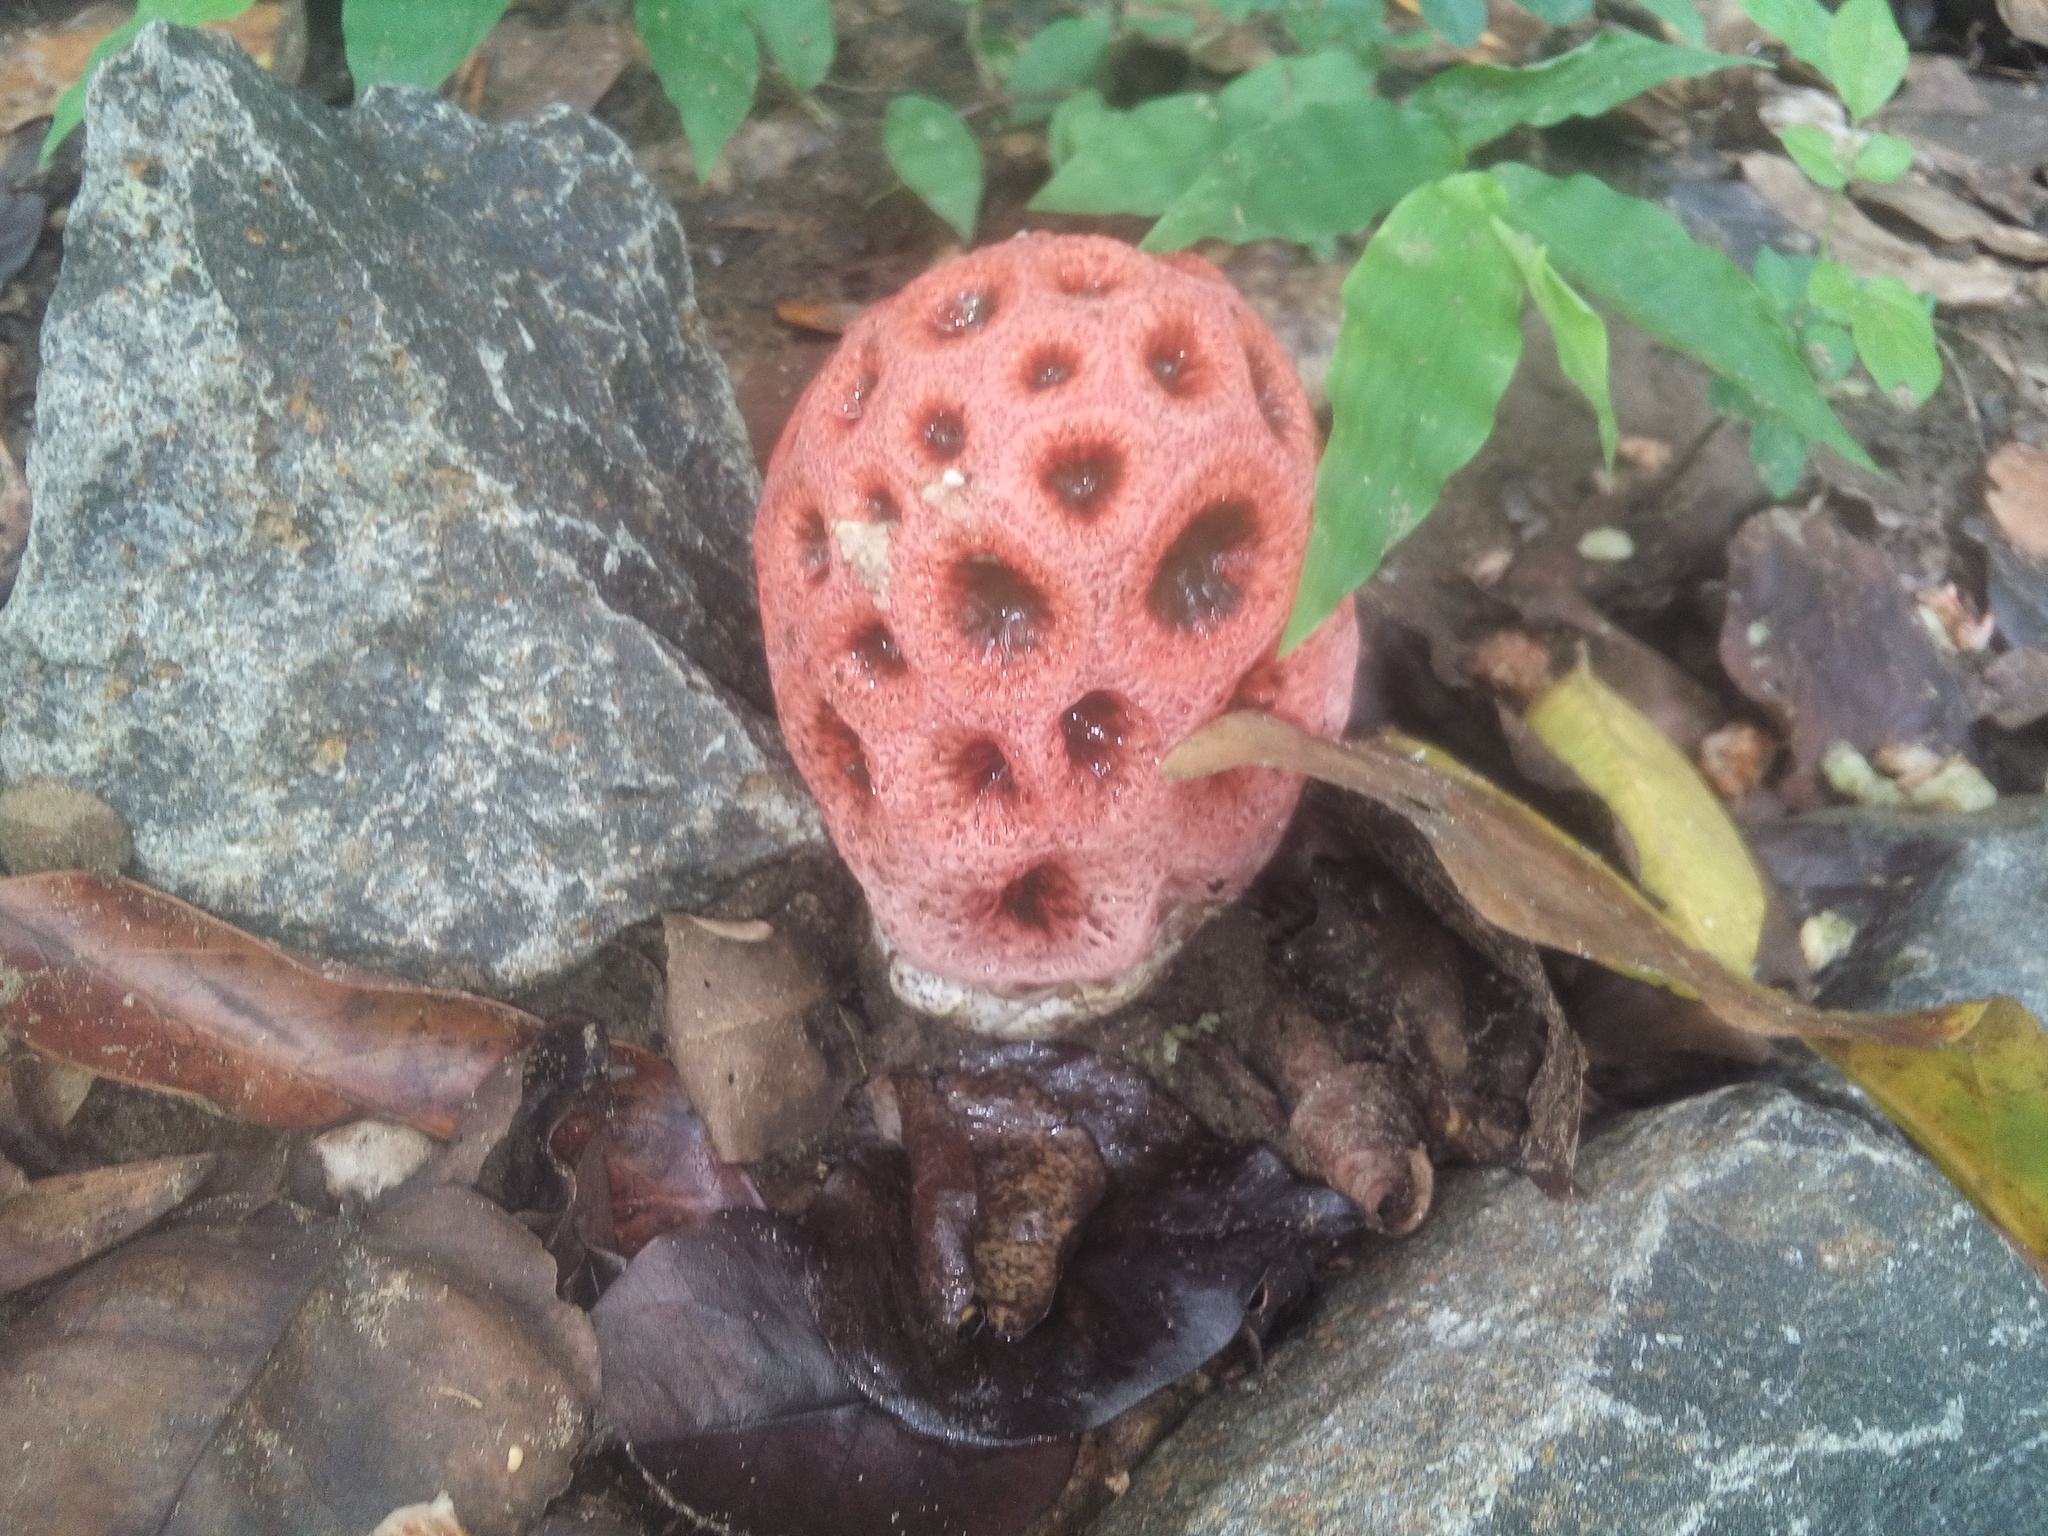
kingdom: Fungi
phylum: Basidiomycota
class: Agaricomycetes
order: Phallales
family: Phallaceae
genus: Clathrus
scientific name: Clathrus crispatus
